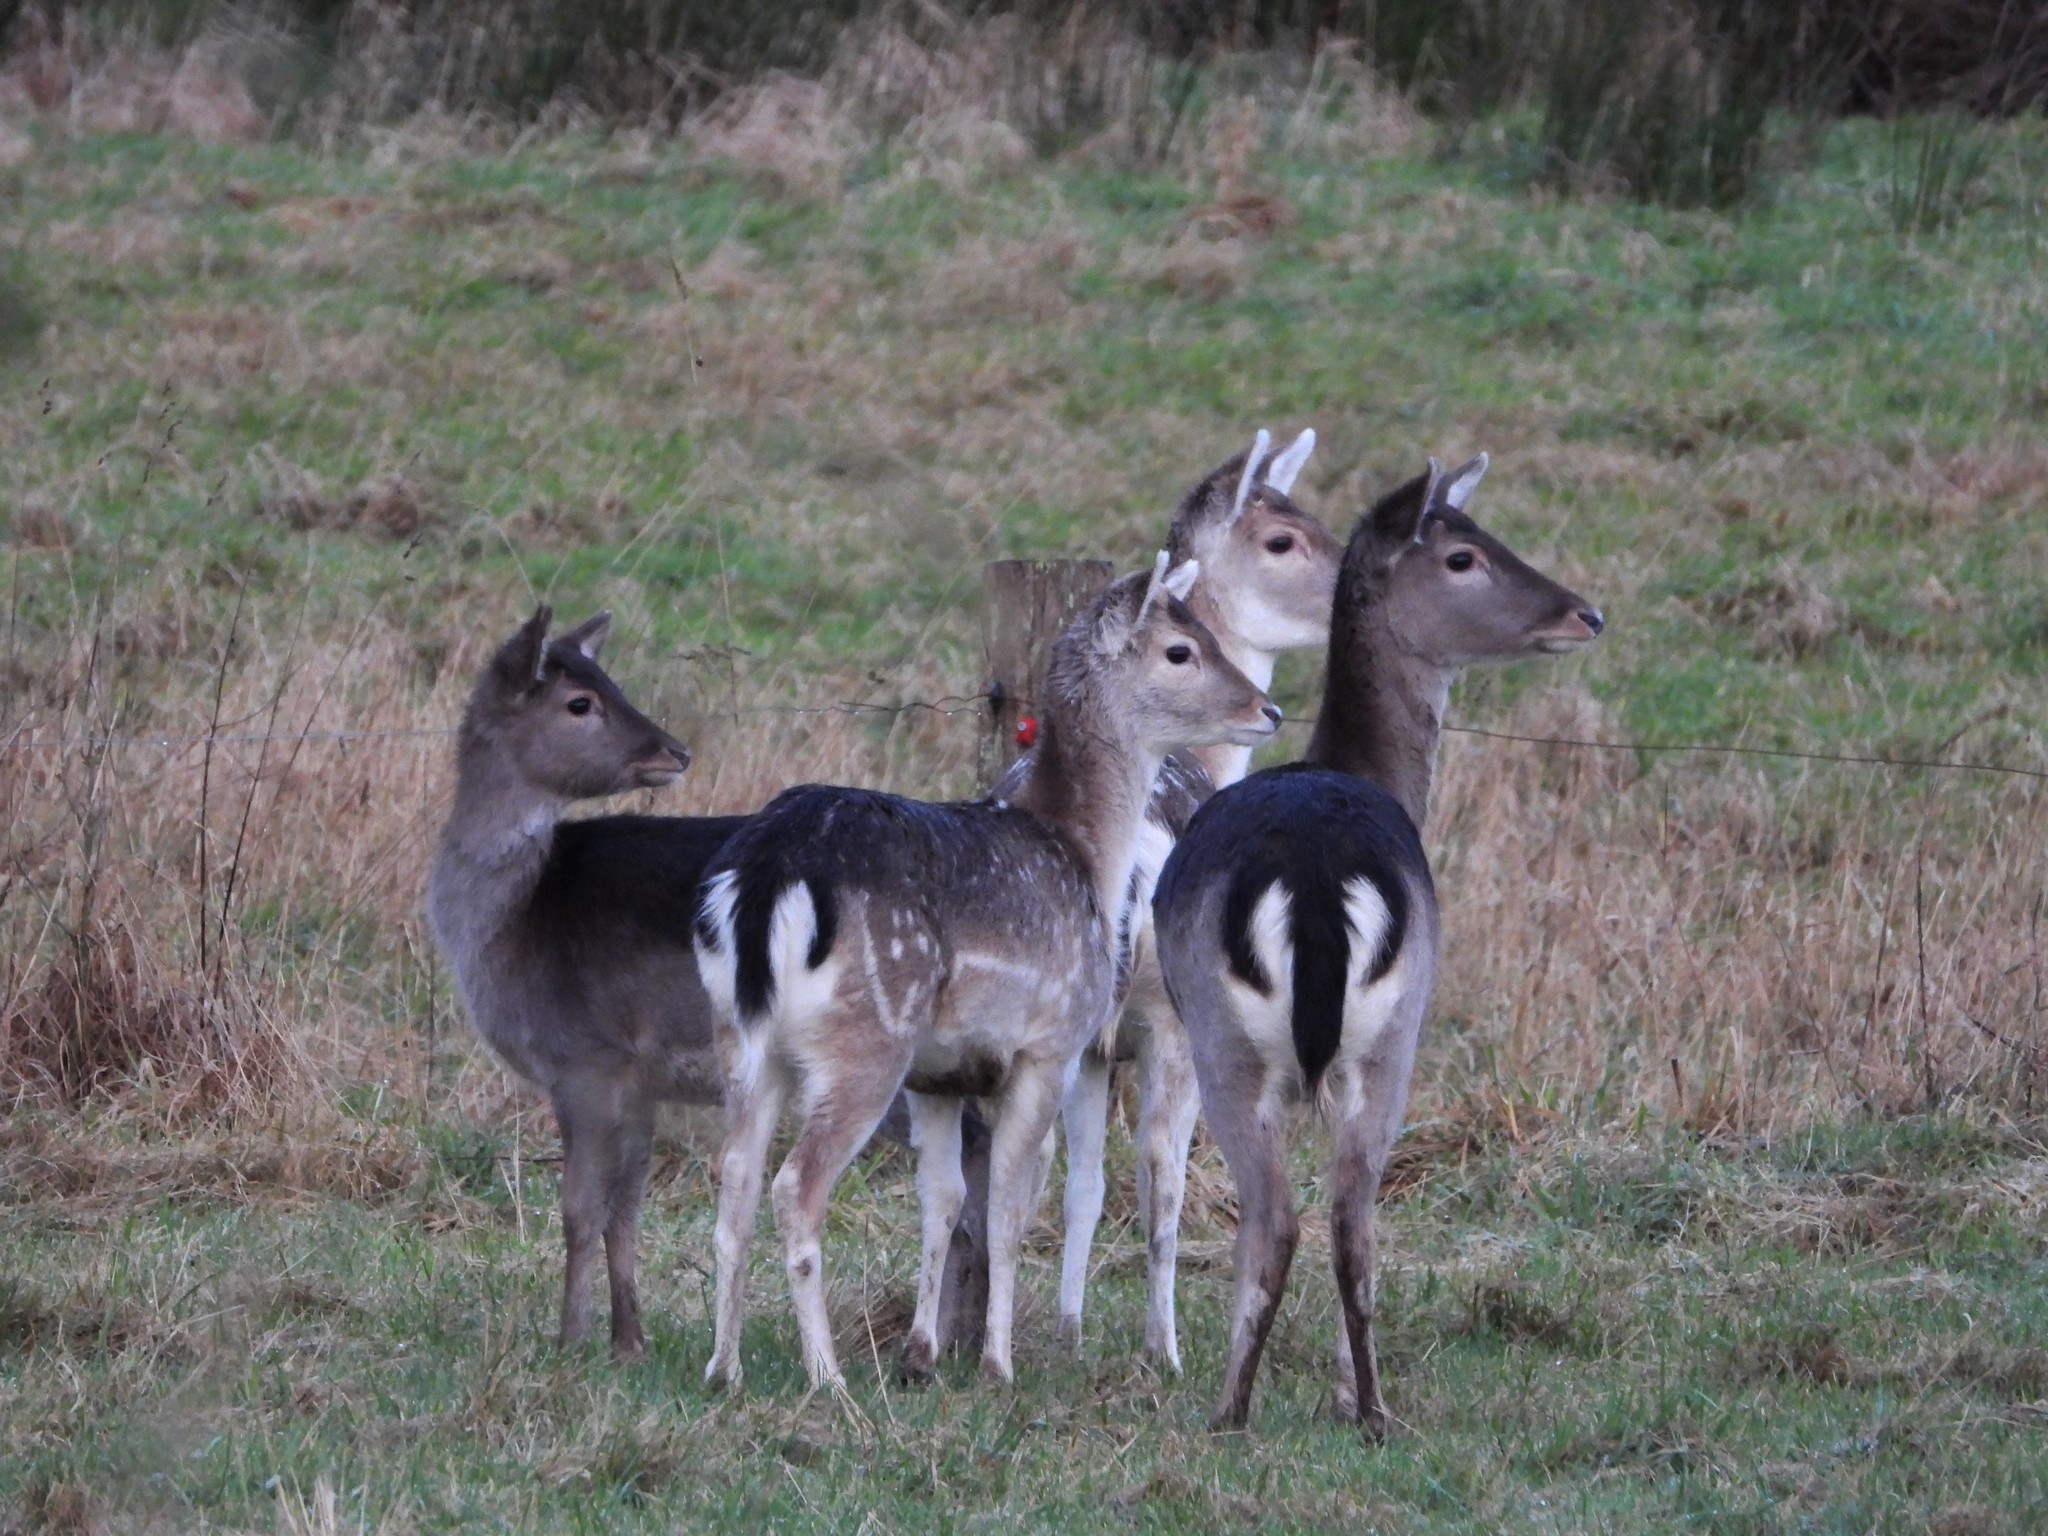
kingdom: Animalia
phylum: Chordata
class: Mammalia
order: Artiodactyla
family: Cervidae
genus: Dama
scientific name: Dama dama
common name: Fallow deer
